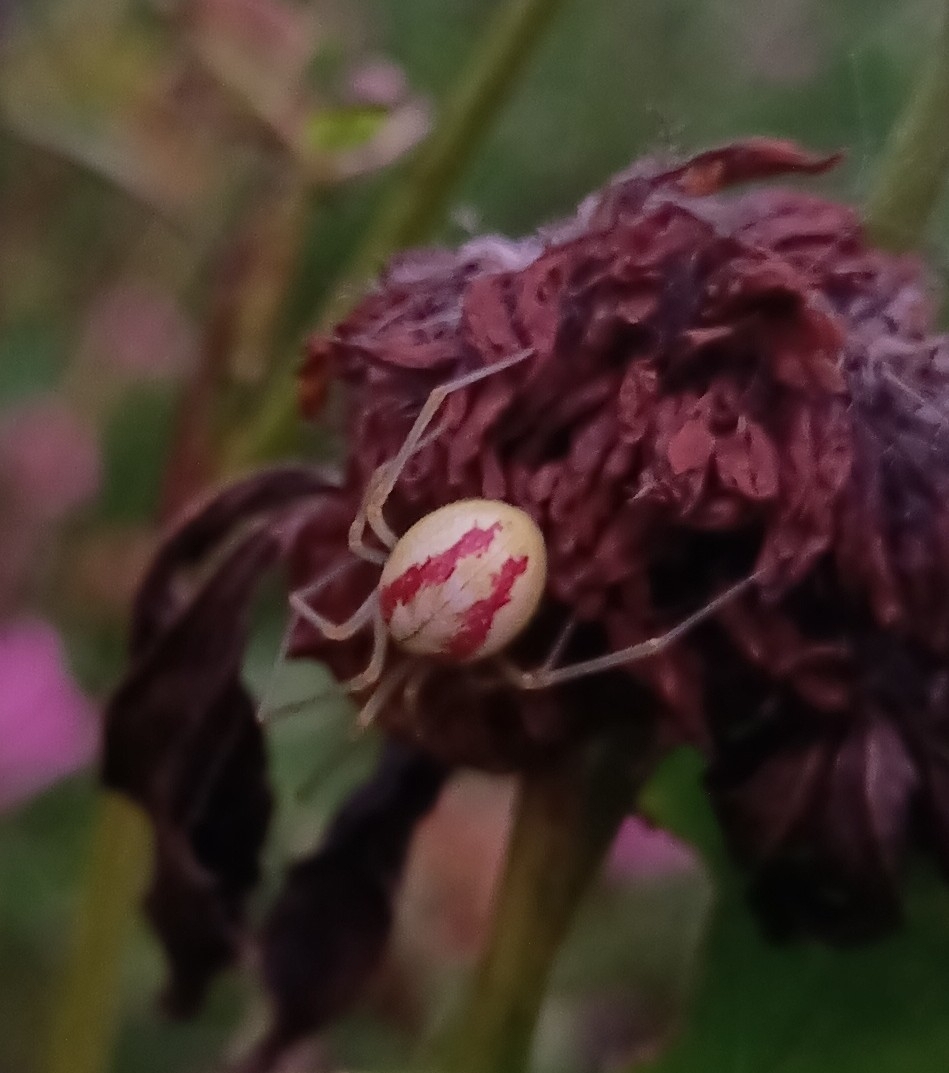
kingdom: Animalia
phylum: Arthropoda
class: Arachnida
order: Araneae
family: Theridiidae
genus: Enoplognatha
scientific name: Enoplognatha ovata
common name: Common candy-striped spider
